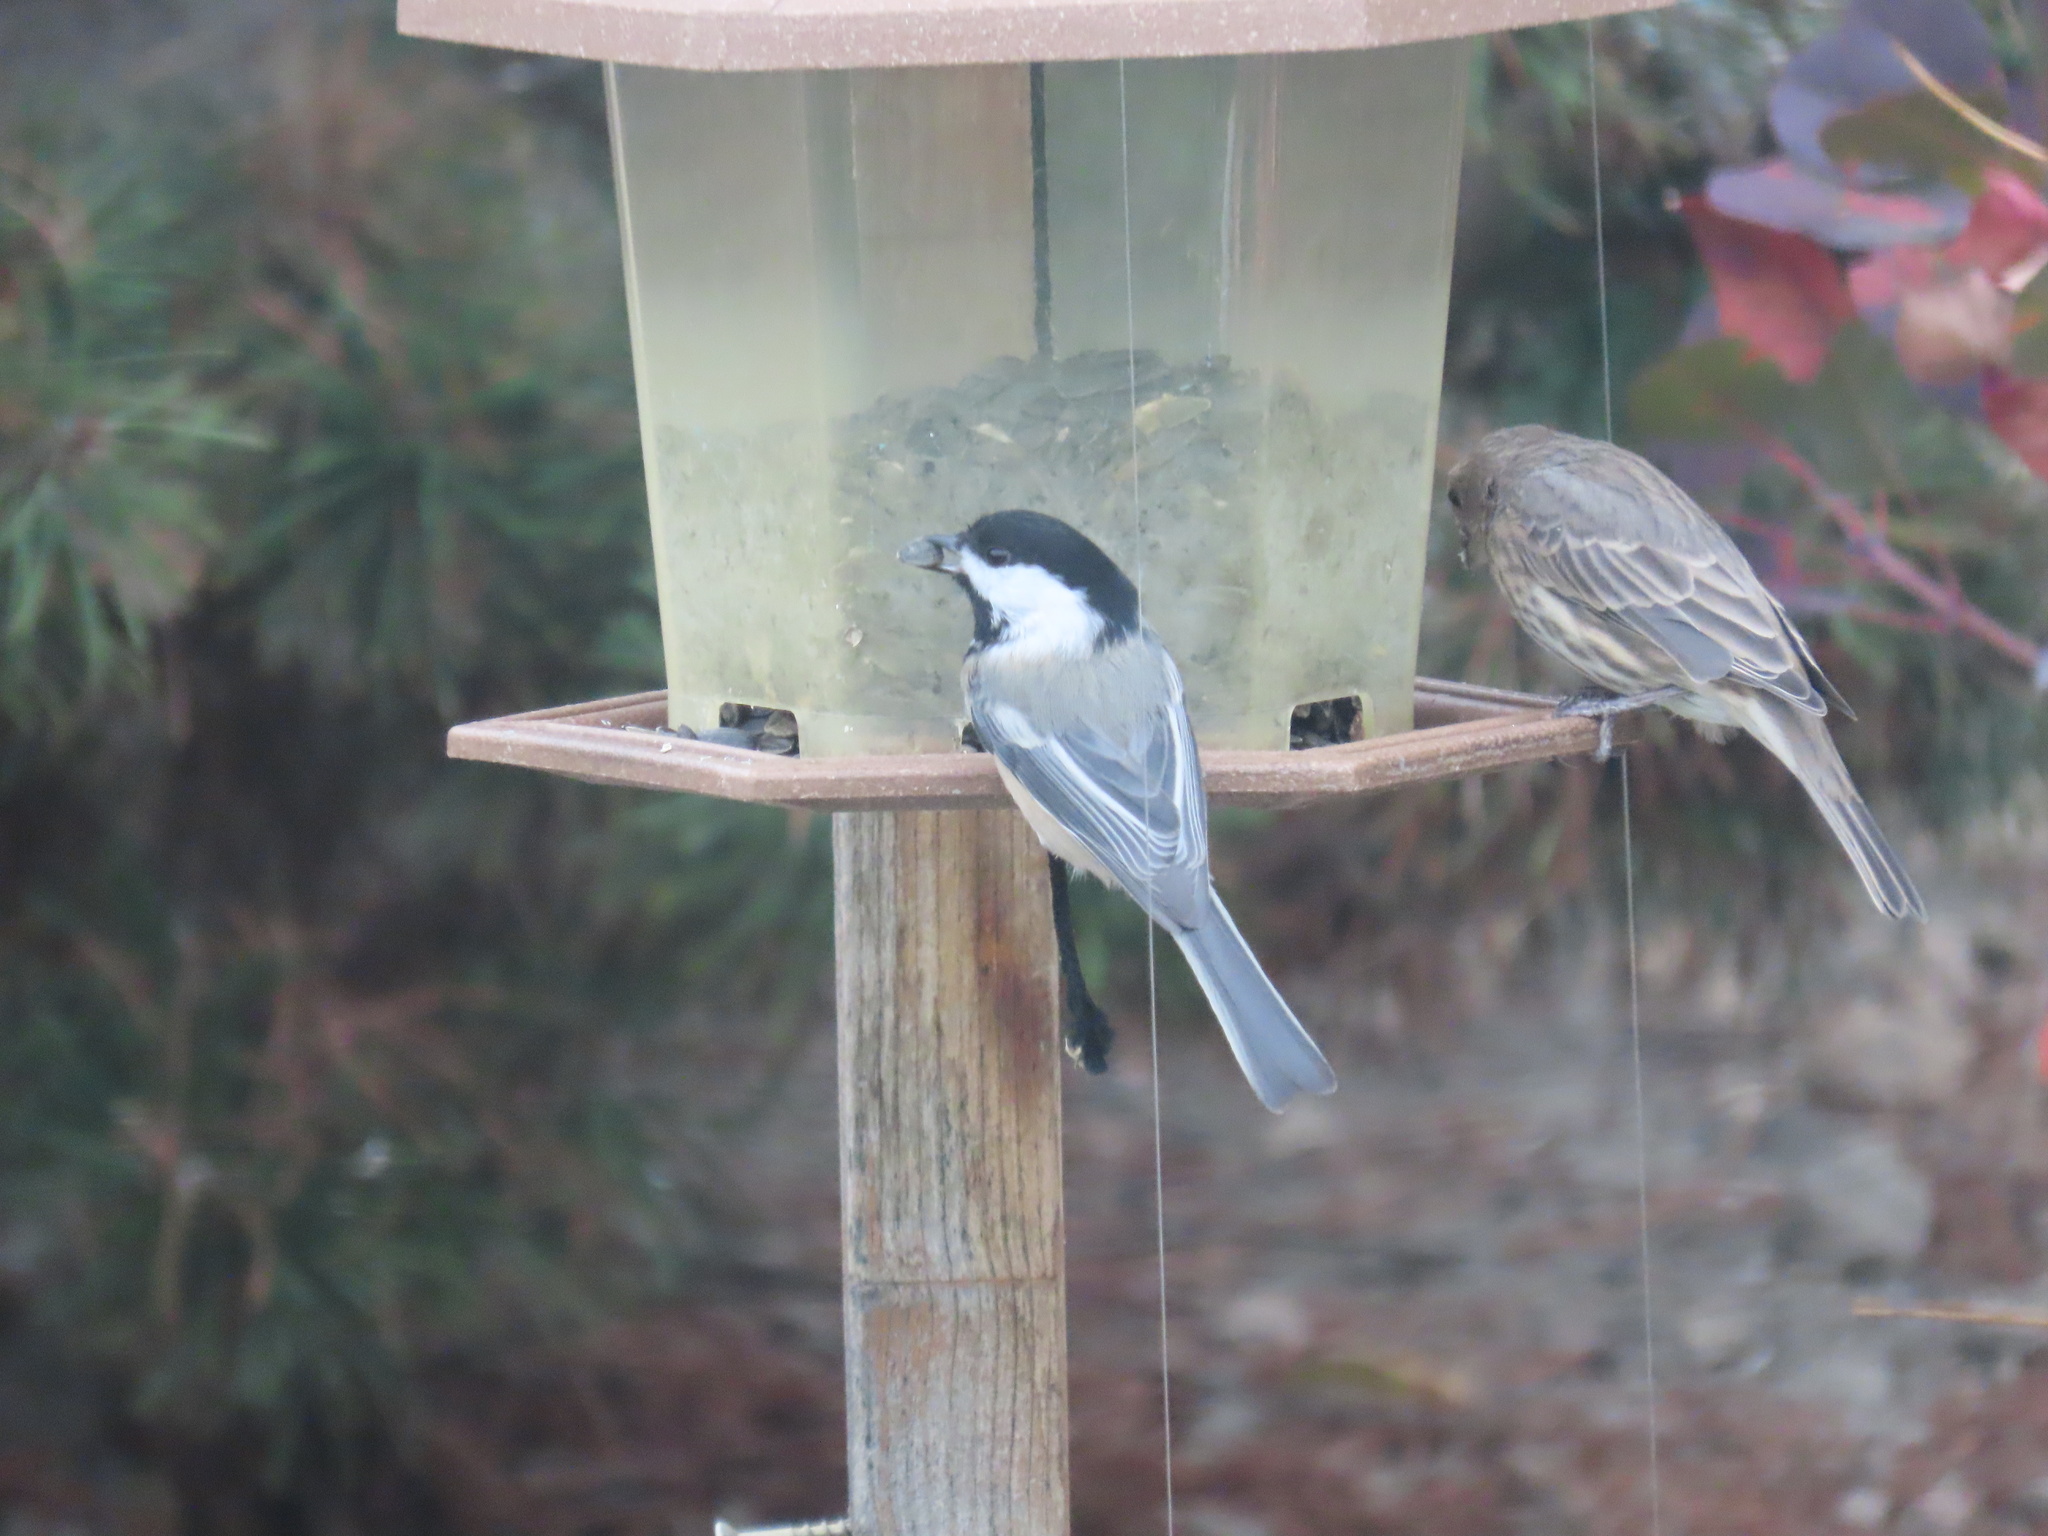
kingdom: Animalia
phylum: Chordata
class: Aves
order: Passeriformes
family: Paridae
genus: Poecile
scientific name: Poecile atricapillus
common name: Black-capped chickadee
